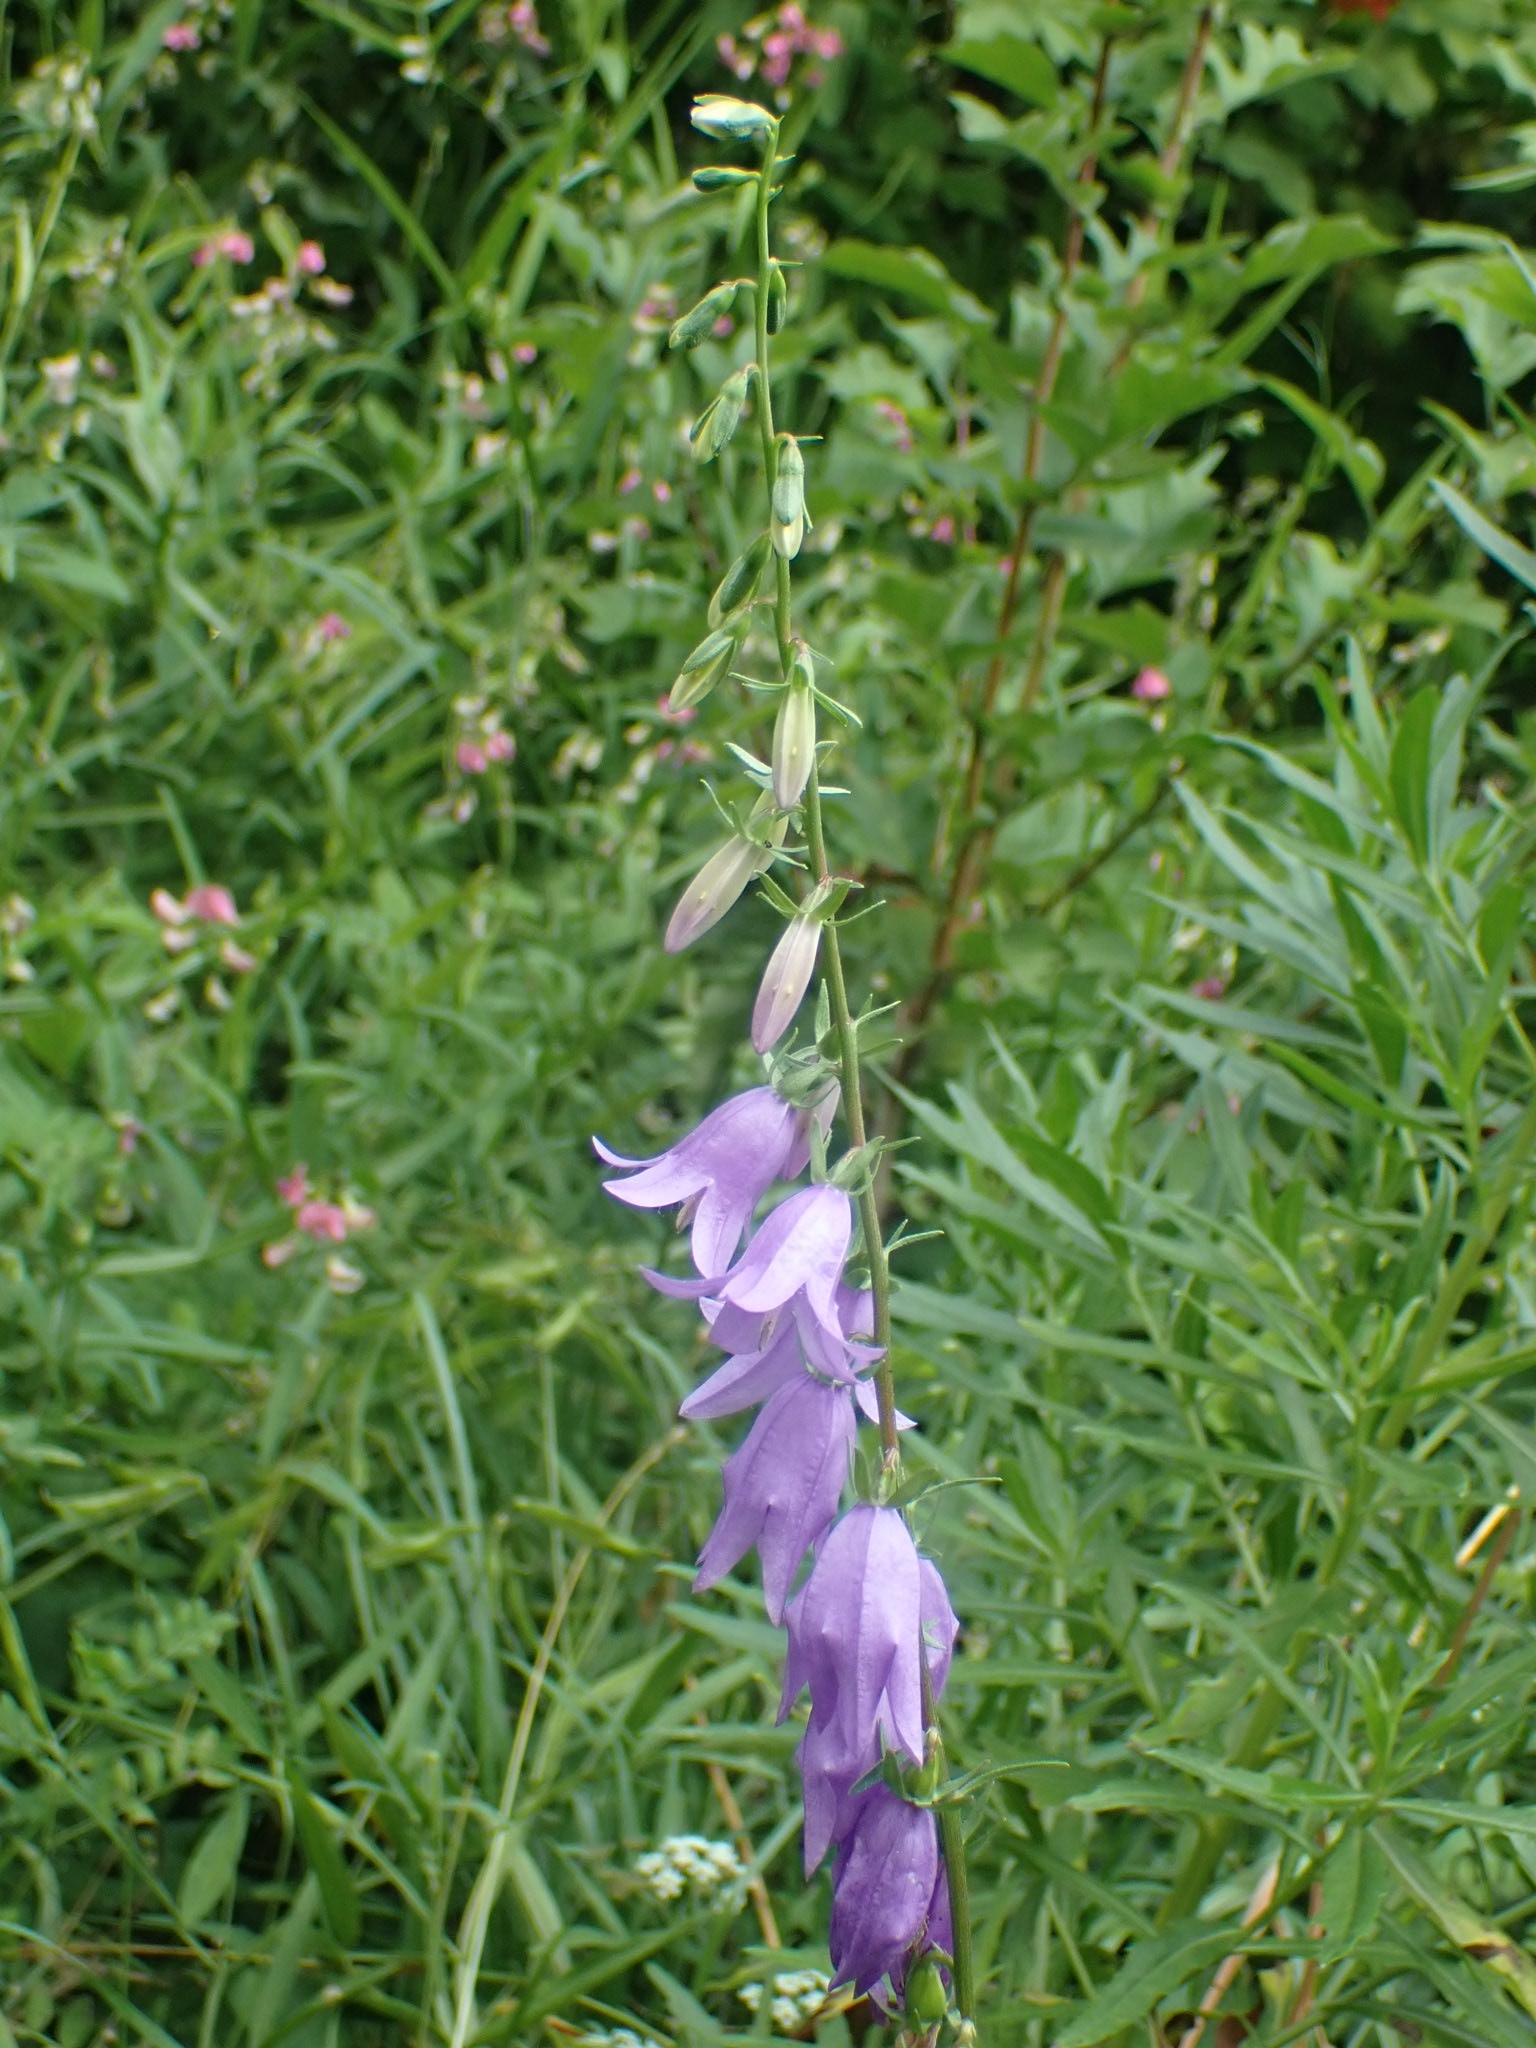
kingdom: Plantae
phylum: Tracheophyta
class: Magnoliopsida
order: Asterales
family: Campanulaceae
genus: Campanula
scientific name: Campanula rapunculoides
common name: Creeping bellflower
